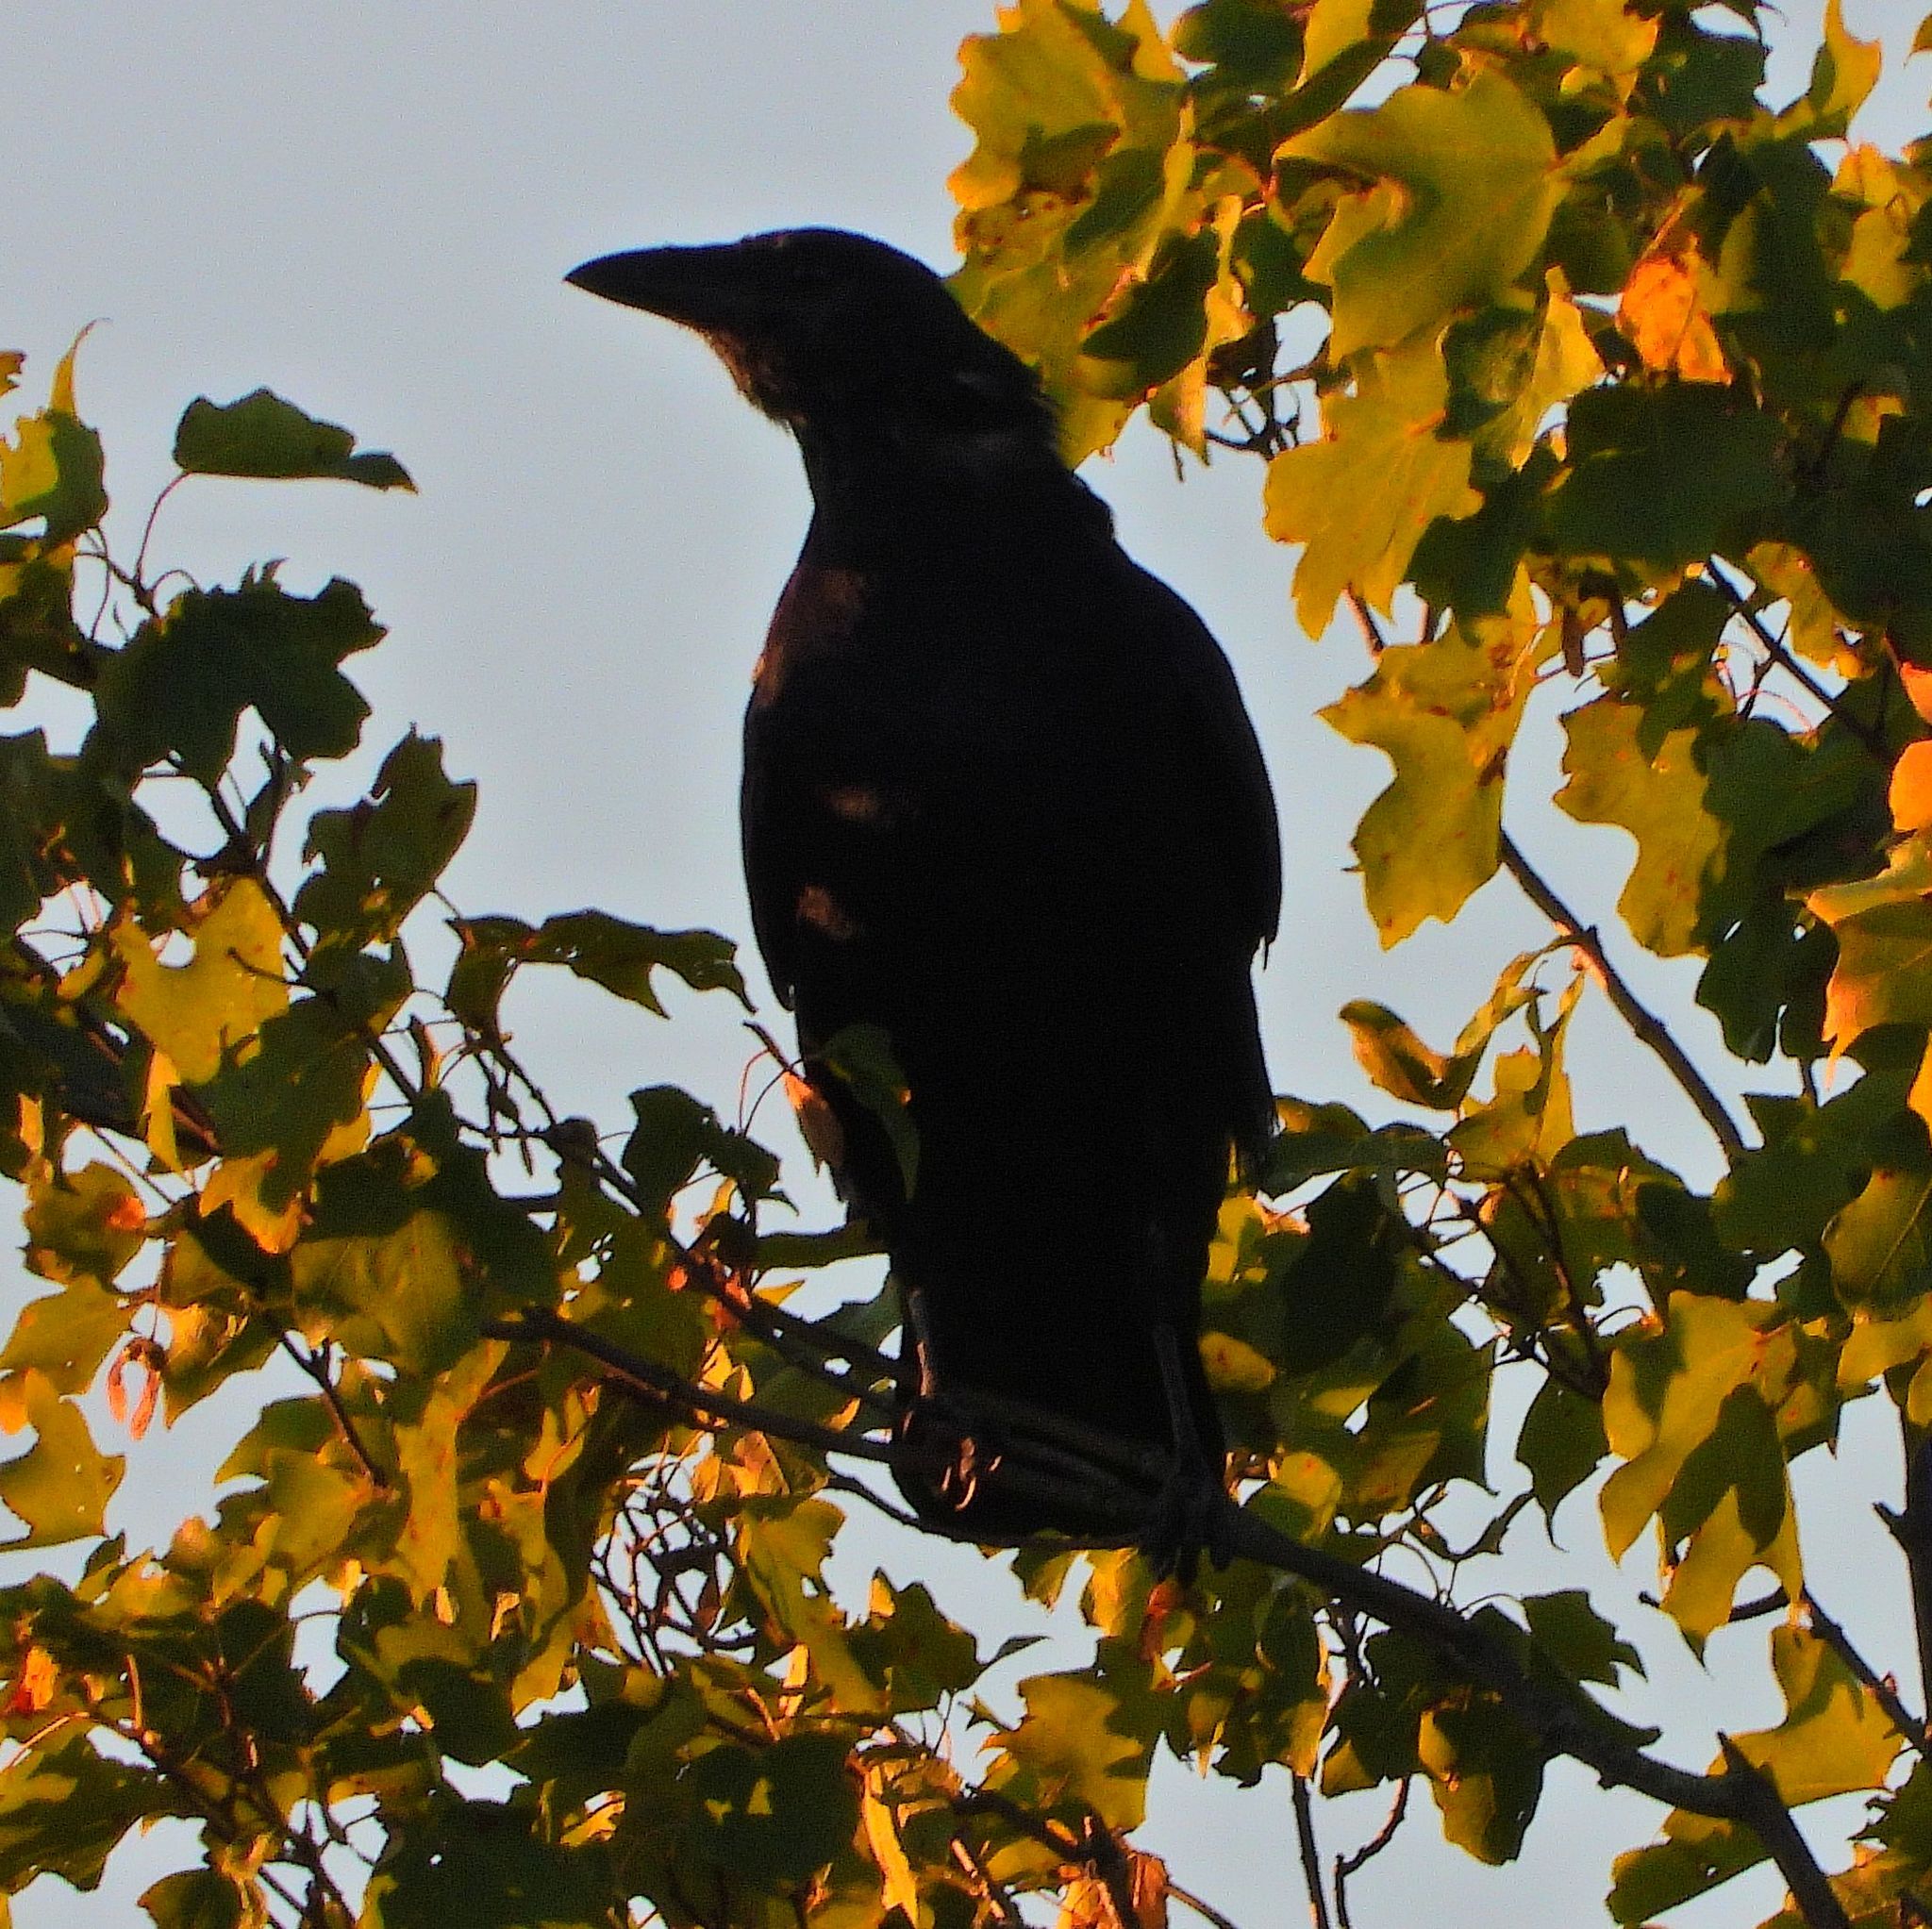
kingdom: Animalia
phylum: Chordata
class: Aves
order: Passeriformes
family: Corvidae
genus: Corvus
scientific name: Corvus corax
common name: Common raven
